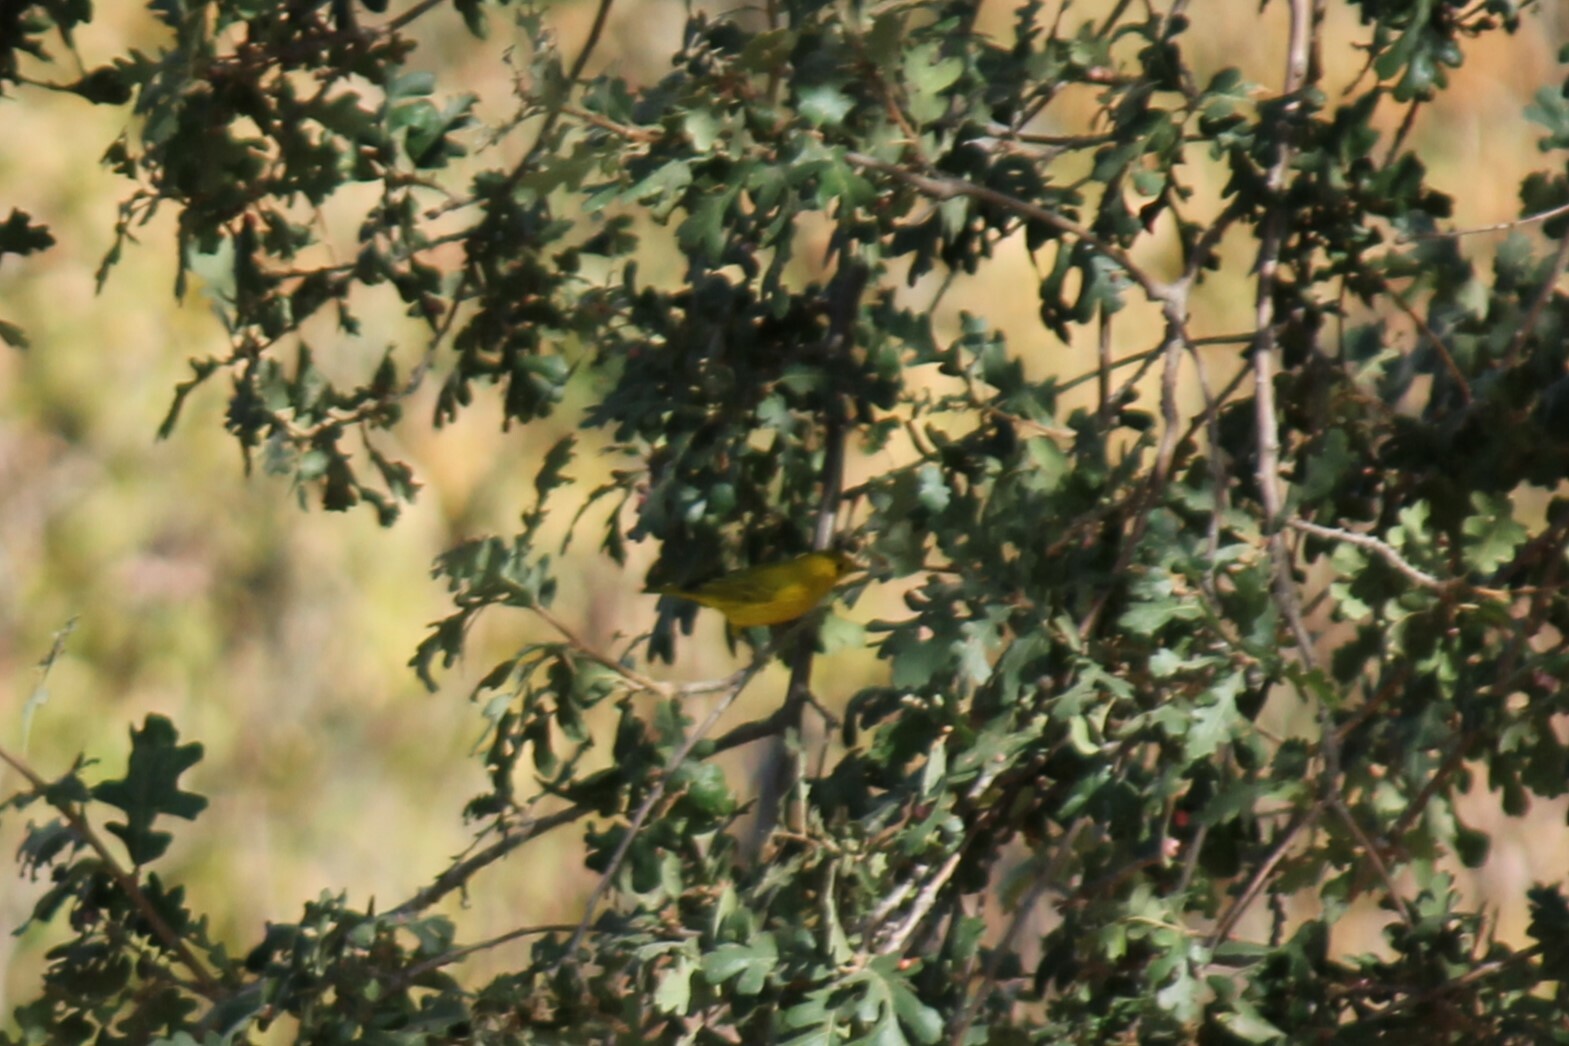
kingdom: Animalia
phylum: Chordata
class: Aves
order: Passeriformes
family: Parulidae
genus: Setophaga
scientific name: Setophaga petechia
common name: Yellow warbler
